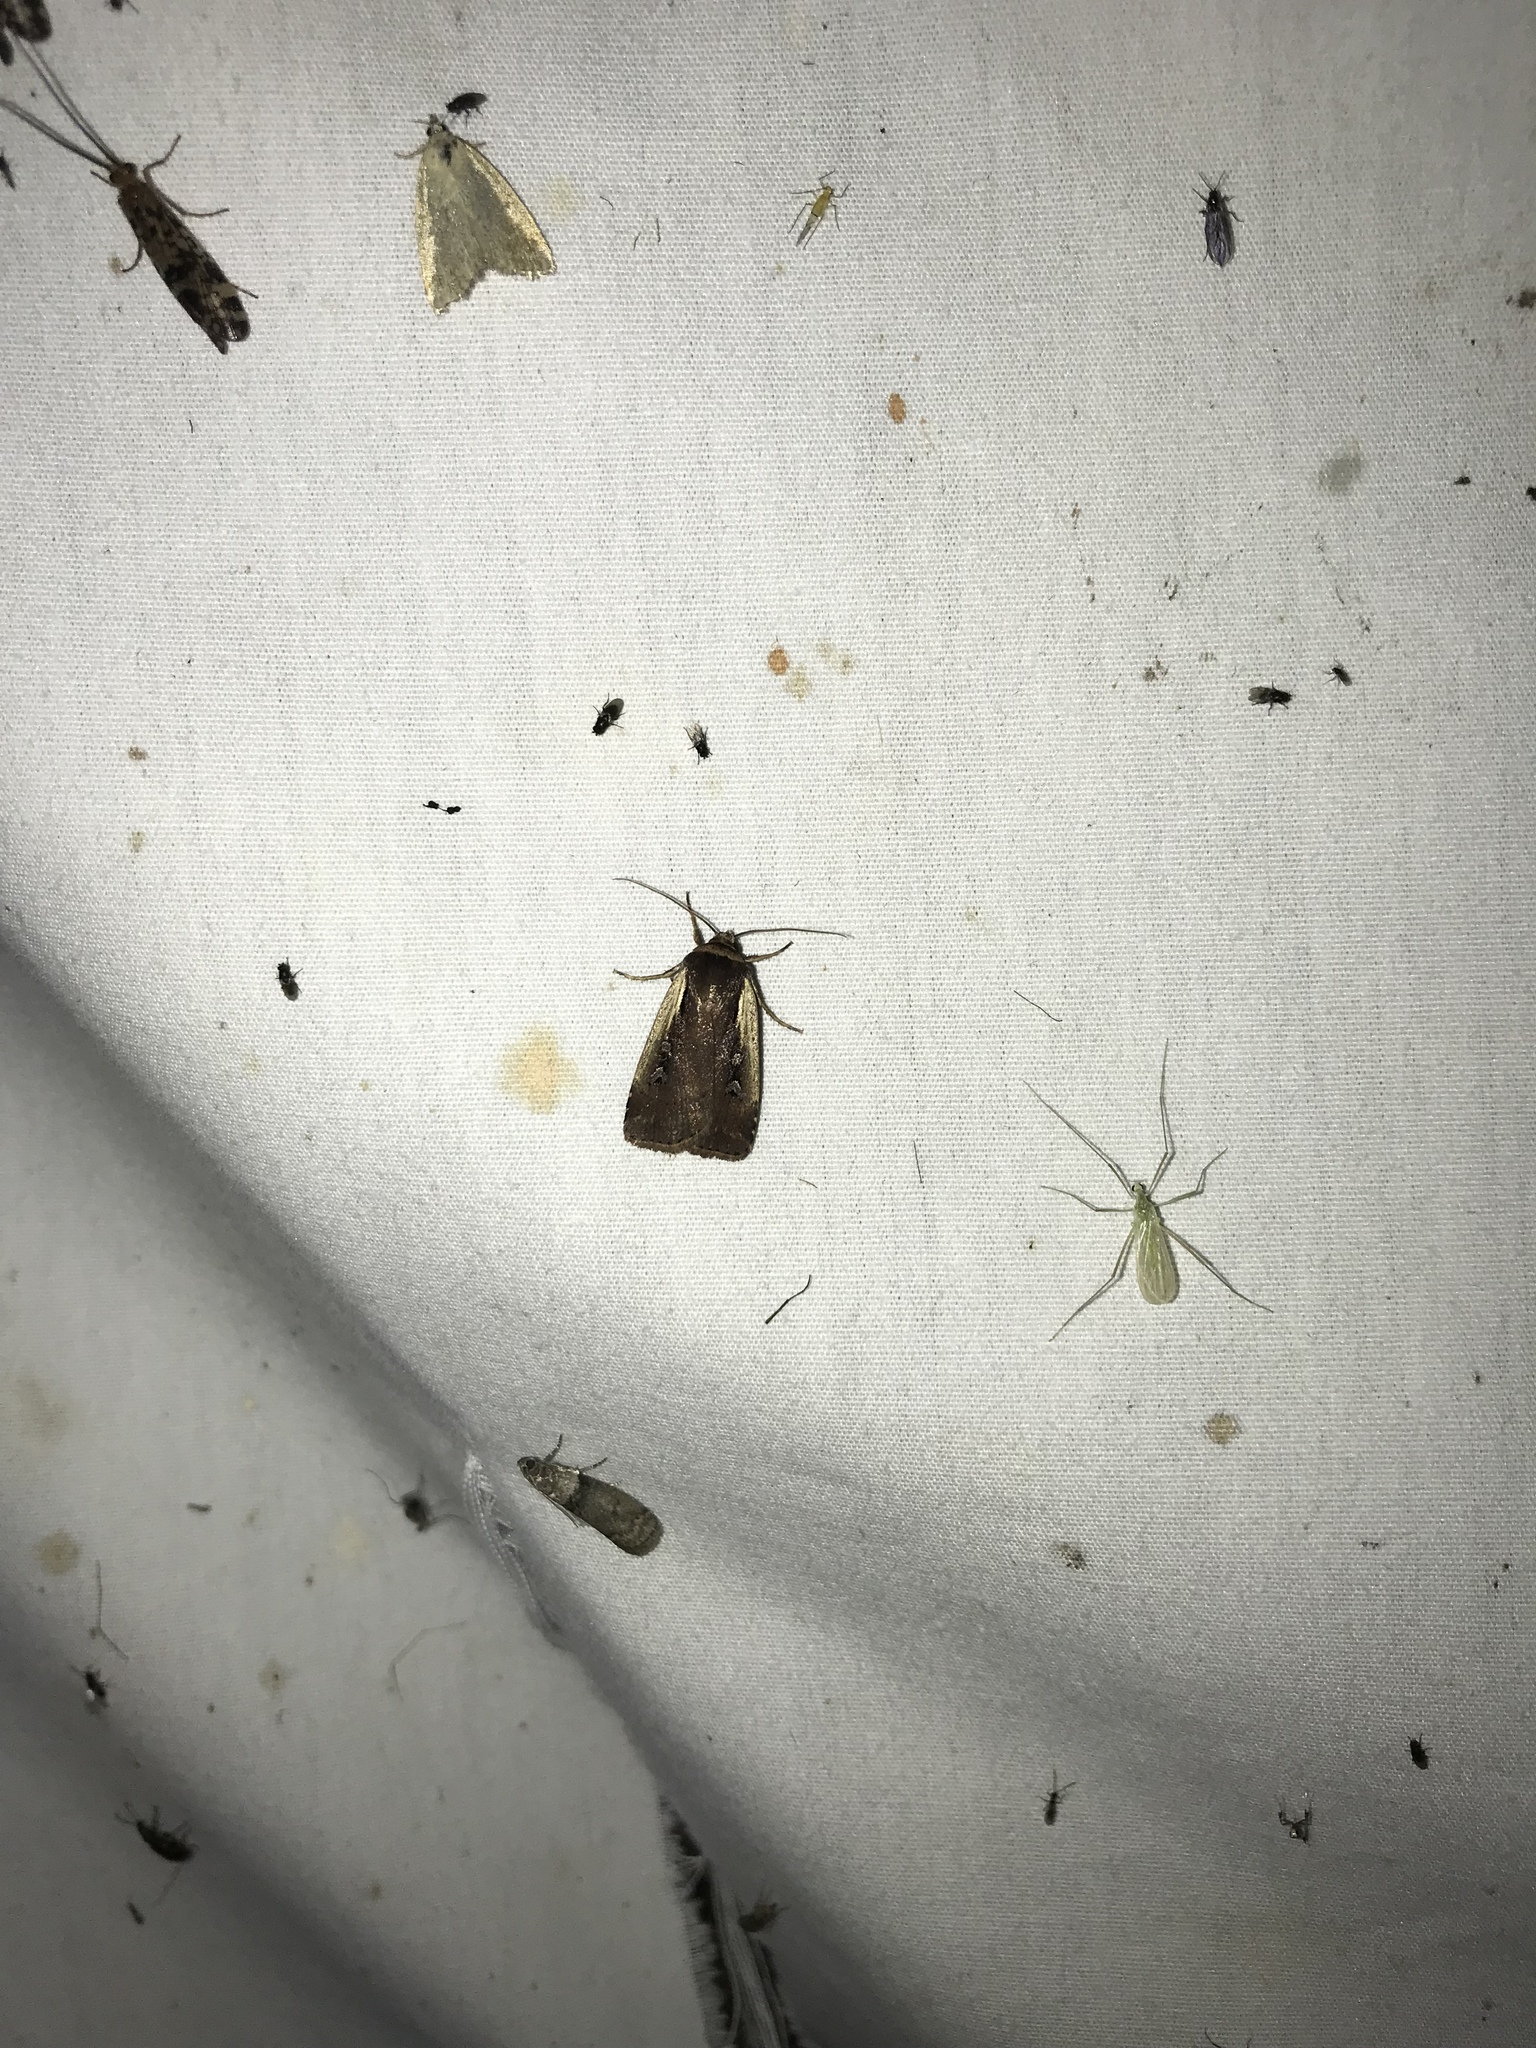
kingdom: Animalia
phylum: Arthropoda
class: Insecta
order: Lepidoptera
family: Noctuidae
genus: Ochropleura
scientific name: Ochropleura implecta
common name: Flame-shouldered dart
